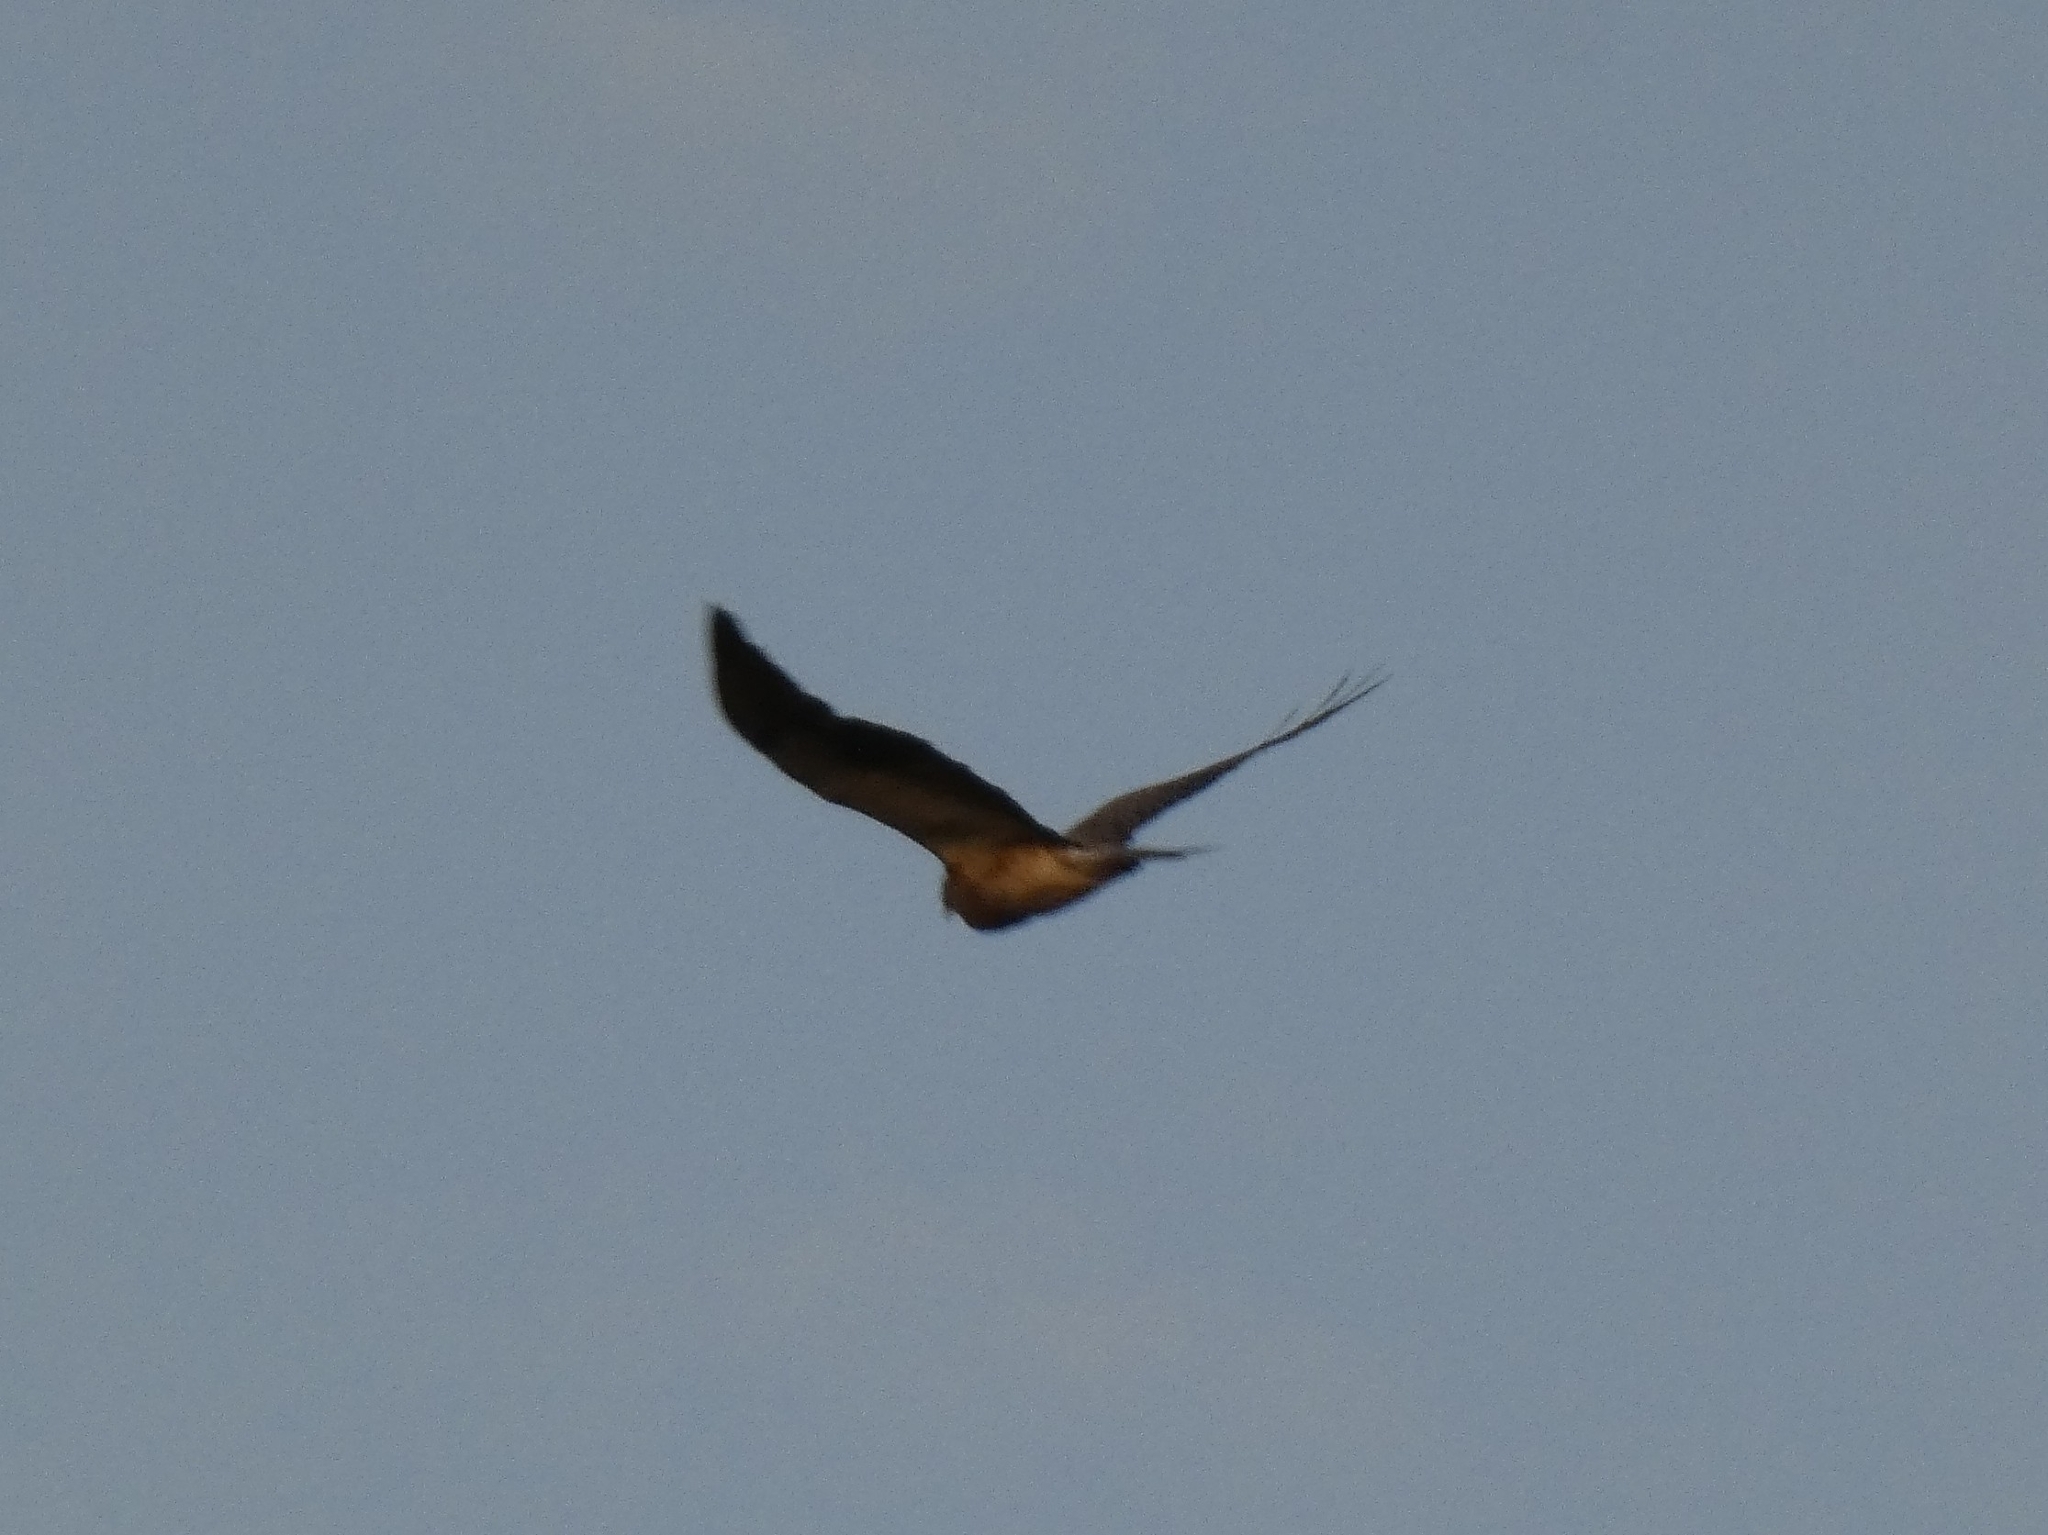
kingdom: Animalia
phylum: Chordata
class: Aves
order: Accipitriformes
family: Accipitridae
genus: Buteo
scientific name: Buteo swainsoni
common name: Swainson's hawk
